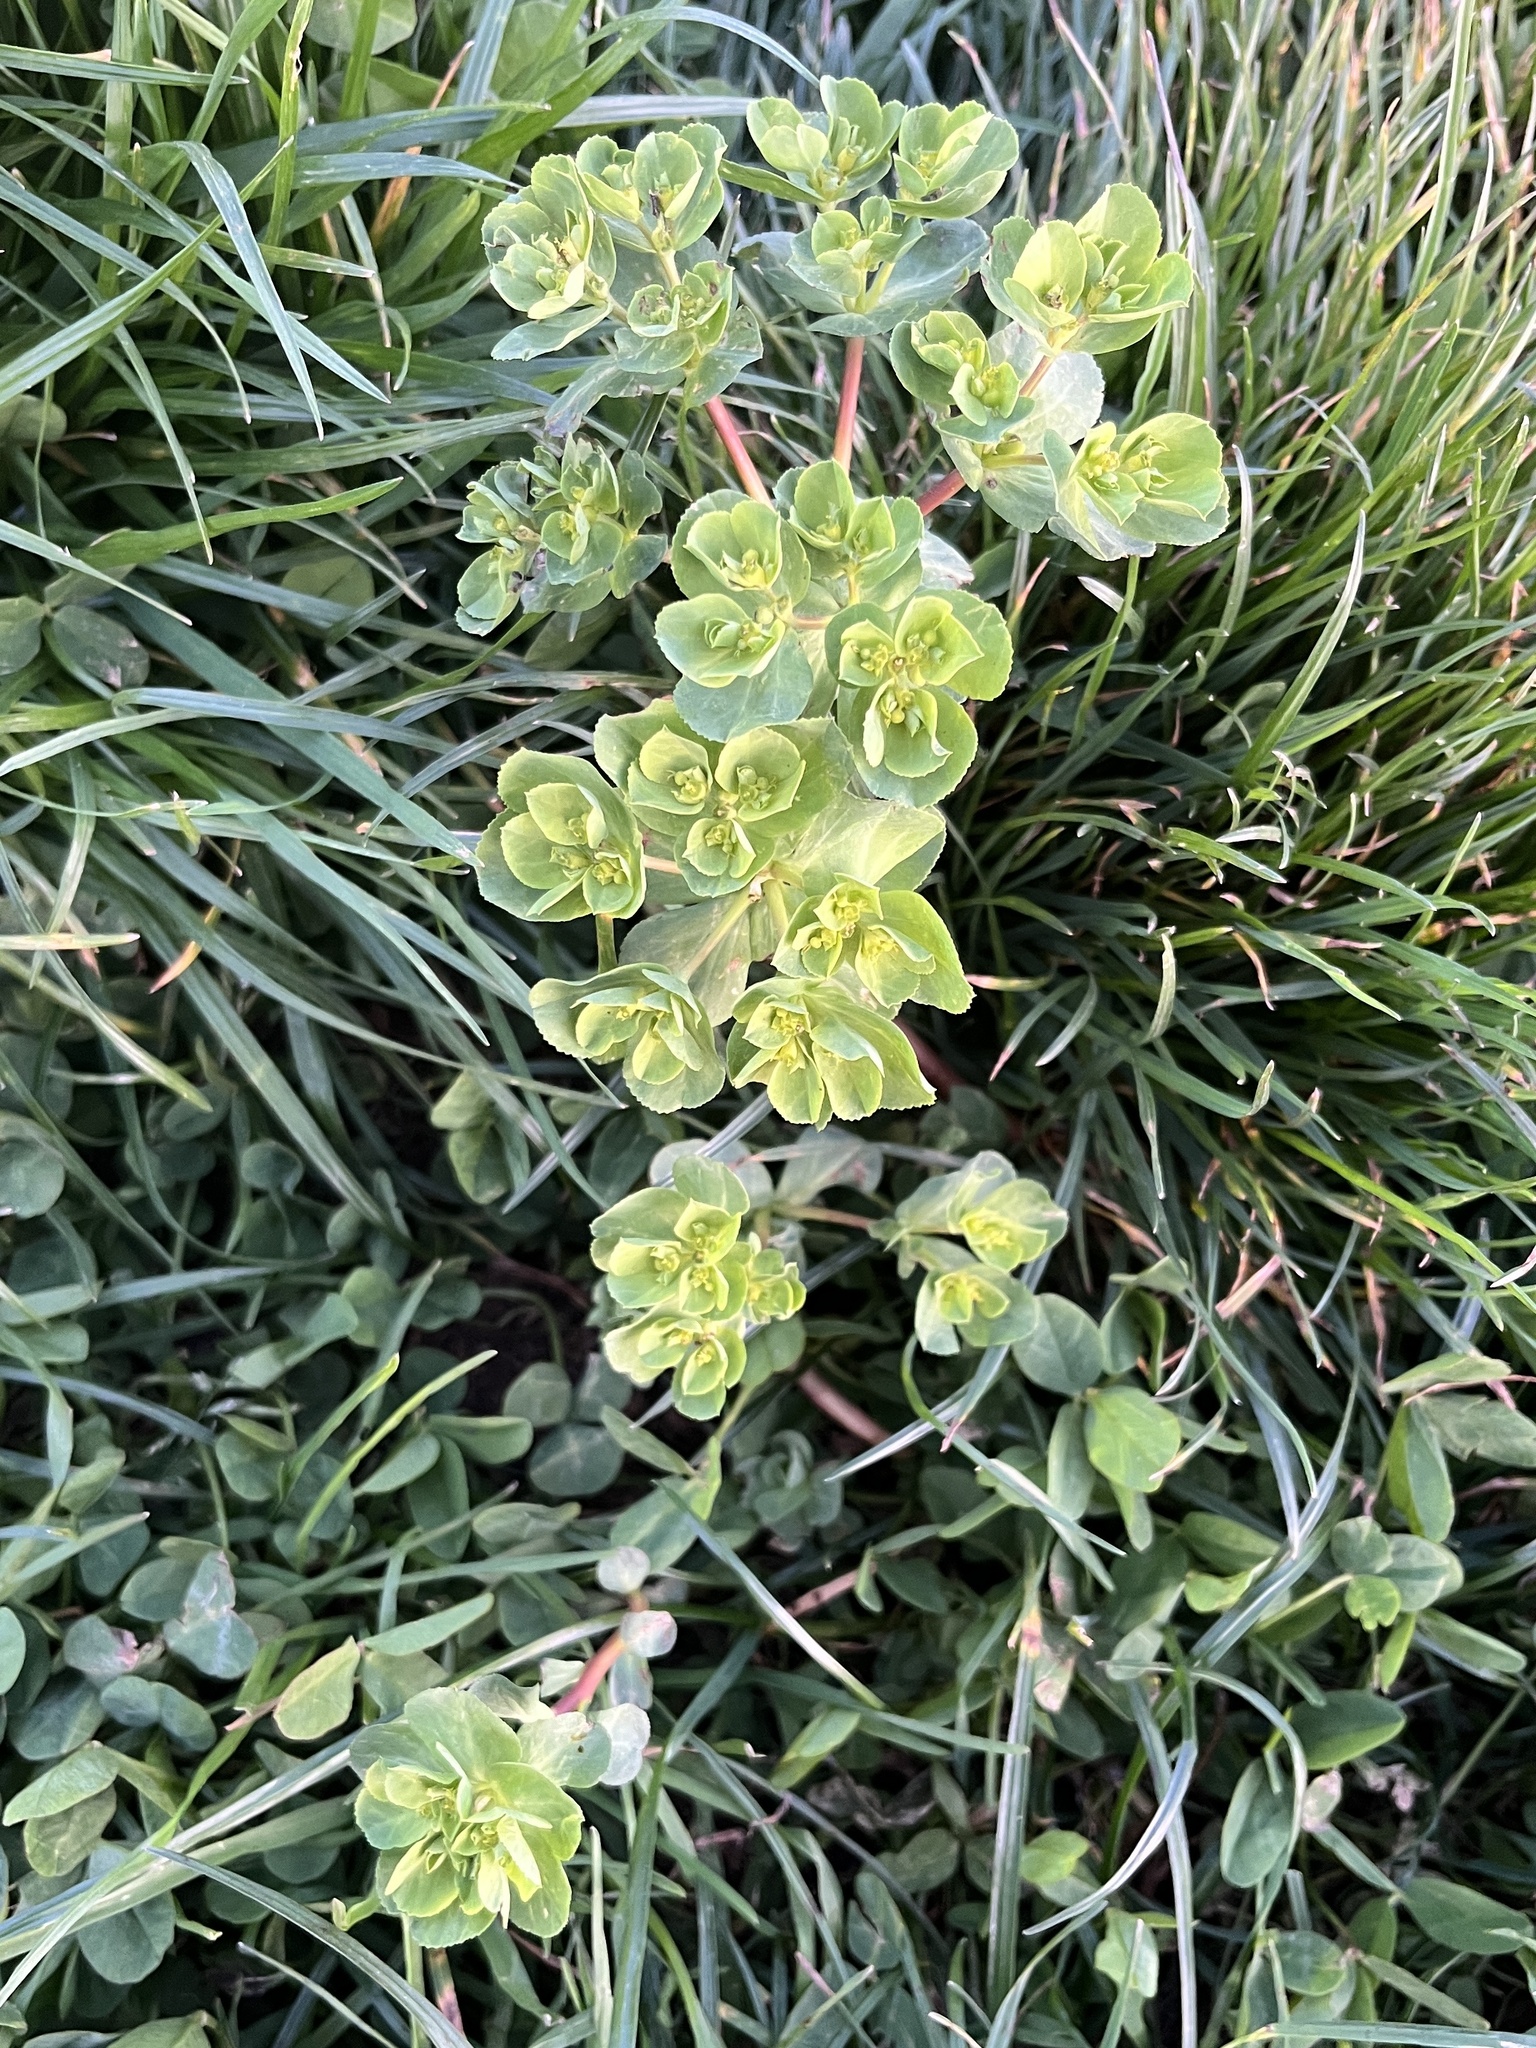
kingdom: Plantae
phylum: Tracheophyta
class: Magnoliopsida
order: Malpighiales
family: Euphorbiaceae
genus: Euphorbia
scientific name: Euphorbia helioscopia
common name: Sun spurge
